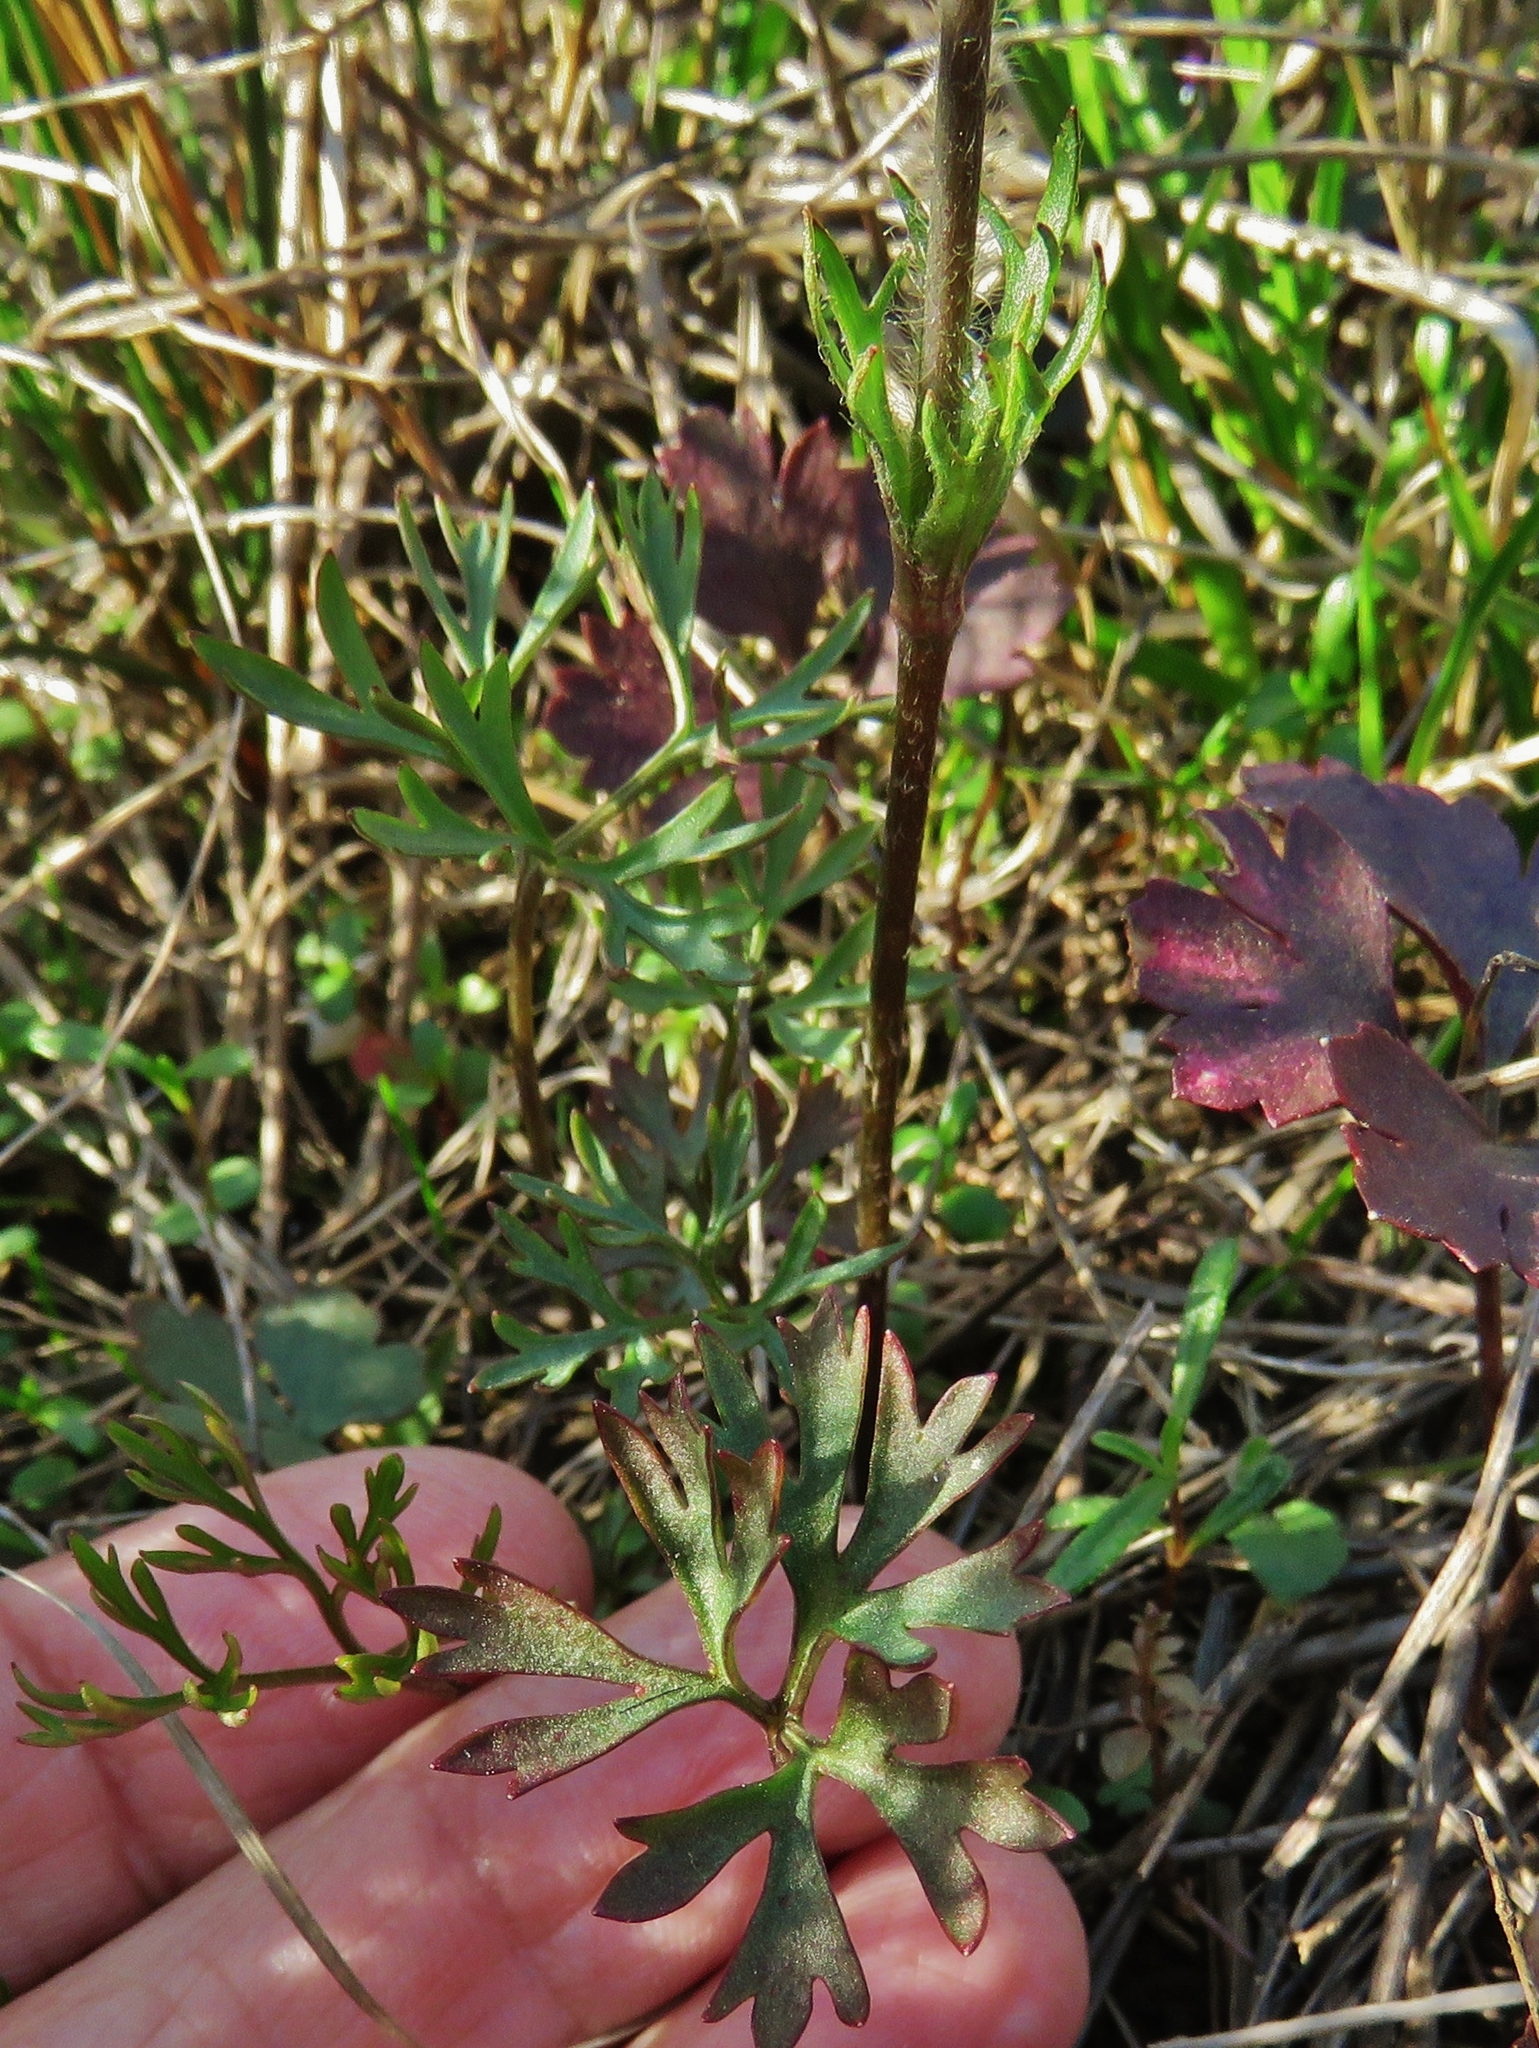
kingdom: Plantae
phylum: Tracheophyta
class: Magnoliopsida
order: Ranunculales
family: Ranunculaceae
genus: Anemone
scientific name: Anemone caroliniana
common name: Carolina anemone
